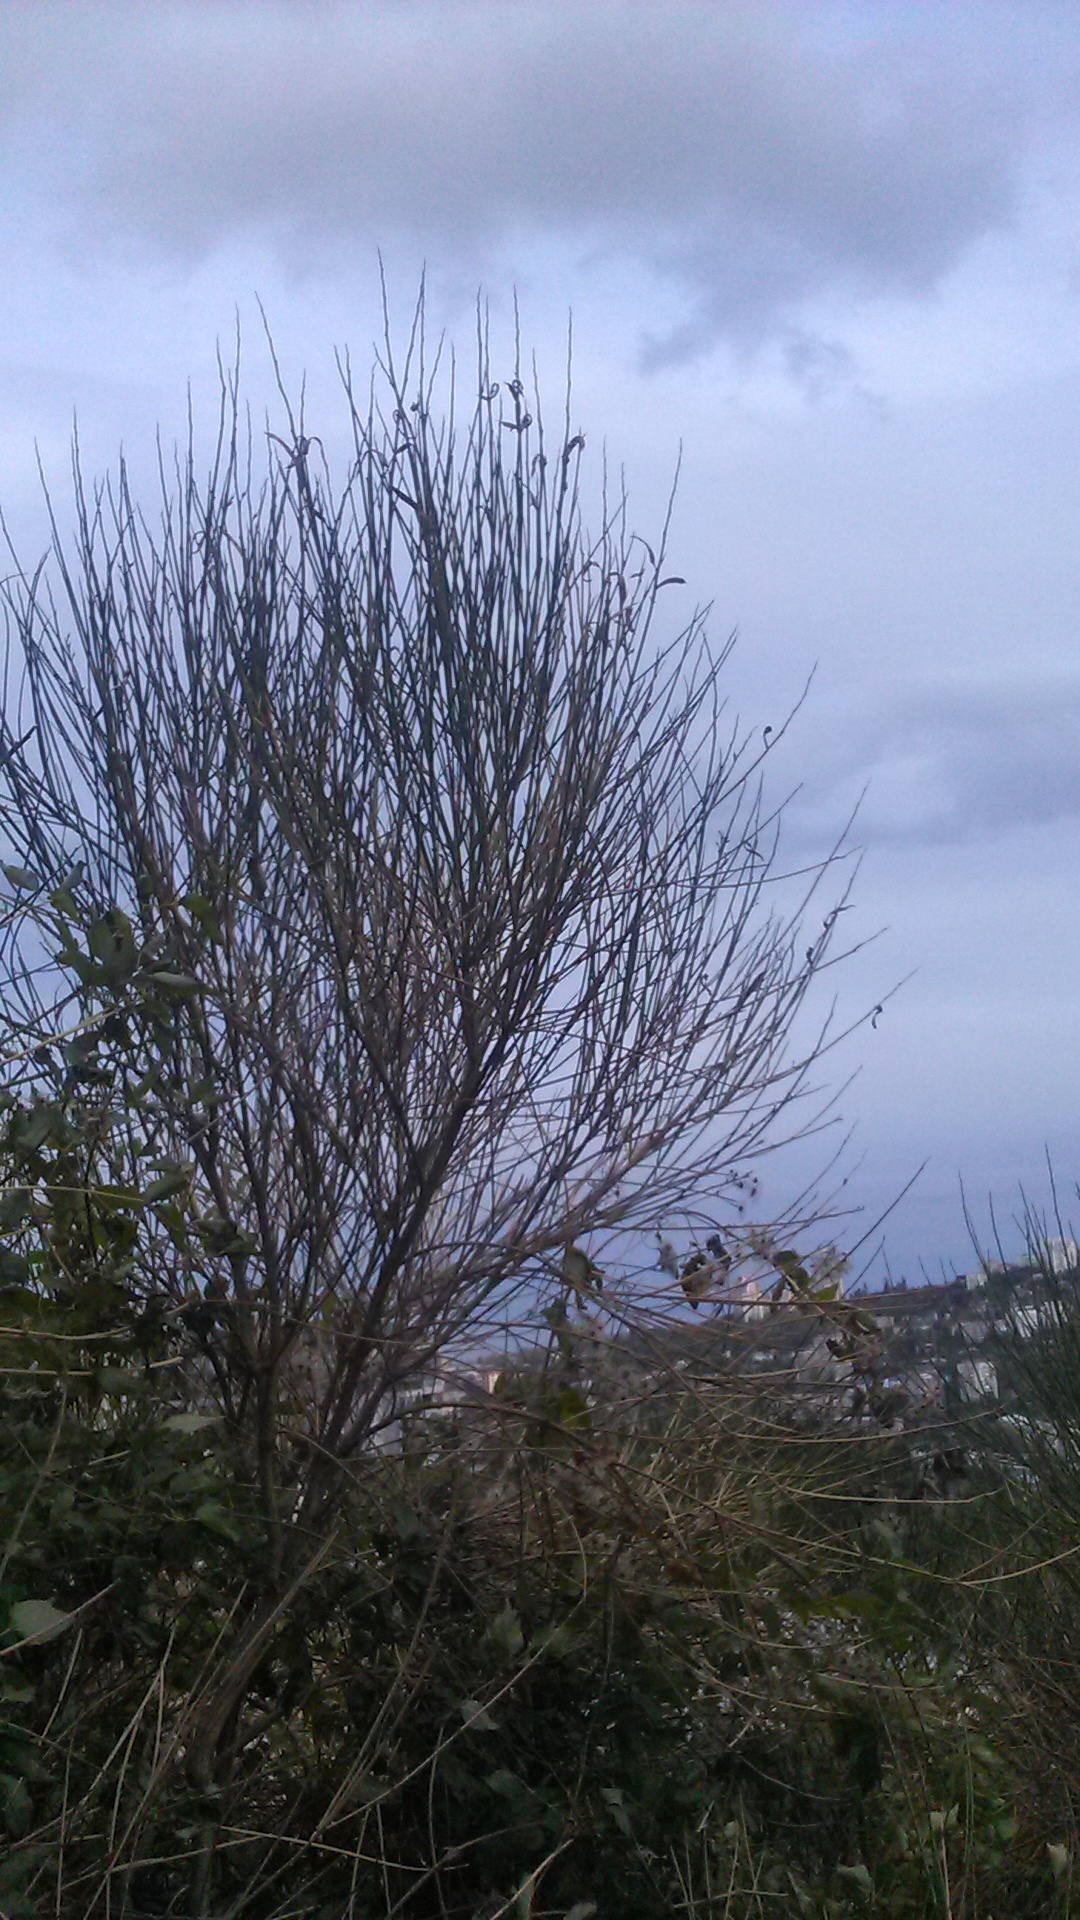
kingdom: Plantae
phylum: Tracheophyta
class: Magnoliopsida
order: Fabales
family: Fabaceae
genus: Spartium
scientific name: Spartium junceum
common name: Spanish broom
